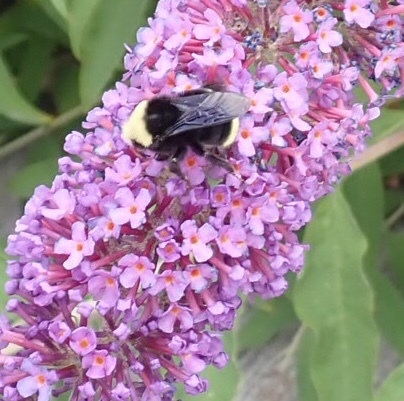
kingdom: Animalia
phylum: Arthropoda
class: Insecta
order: Hymenoptera
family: Apidae
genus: Bombus
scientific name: Bombus vosnesenskii
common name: Vosnesensky bumble bee
